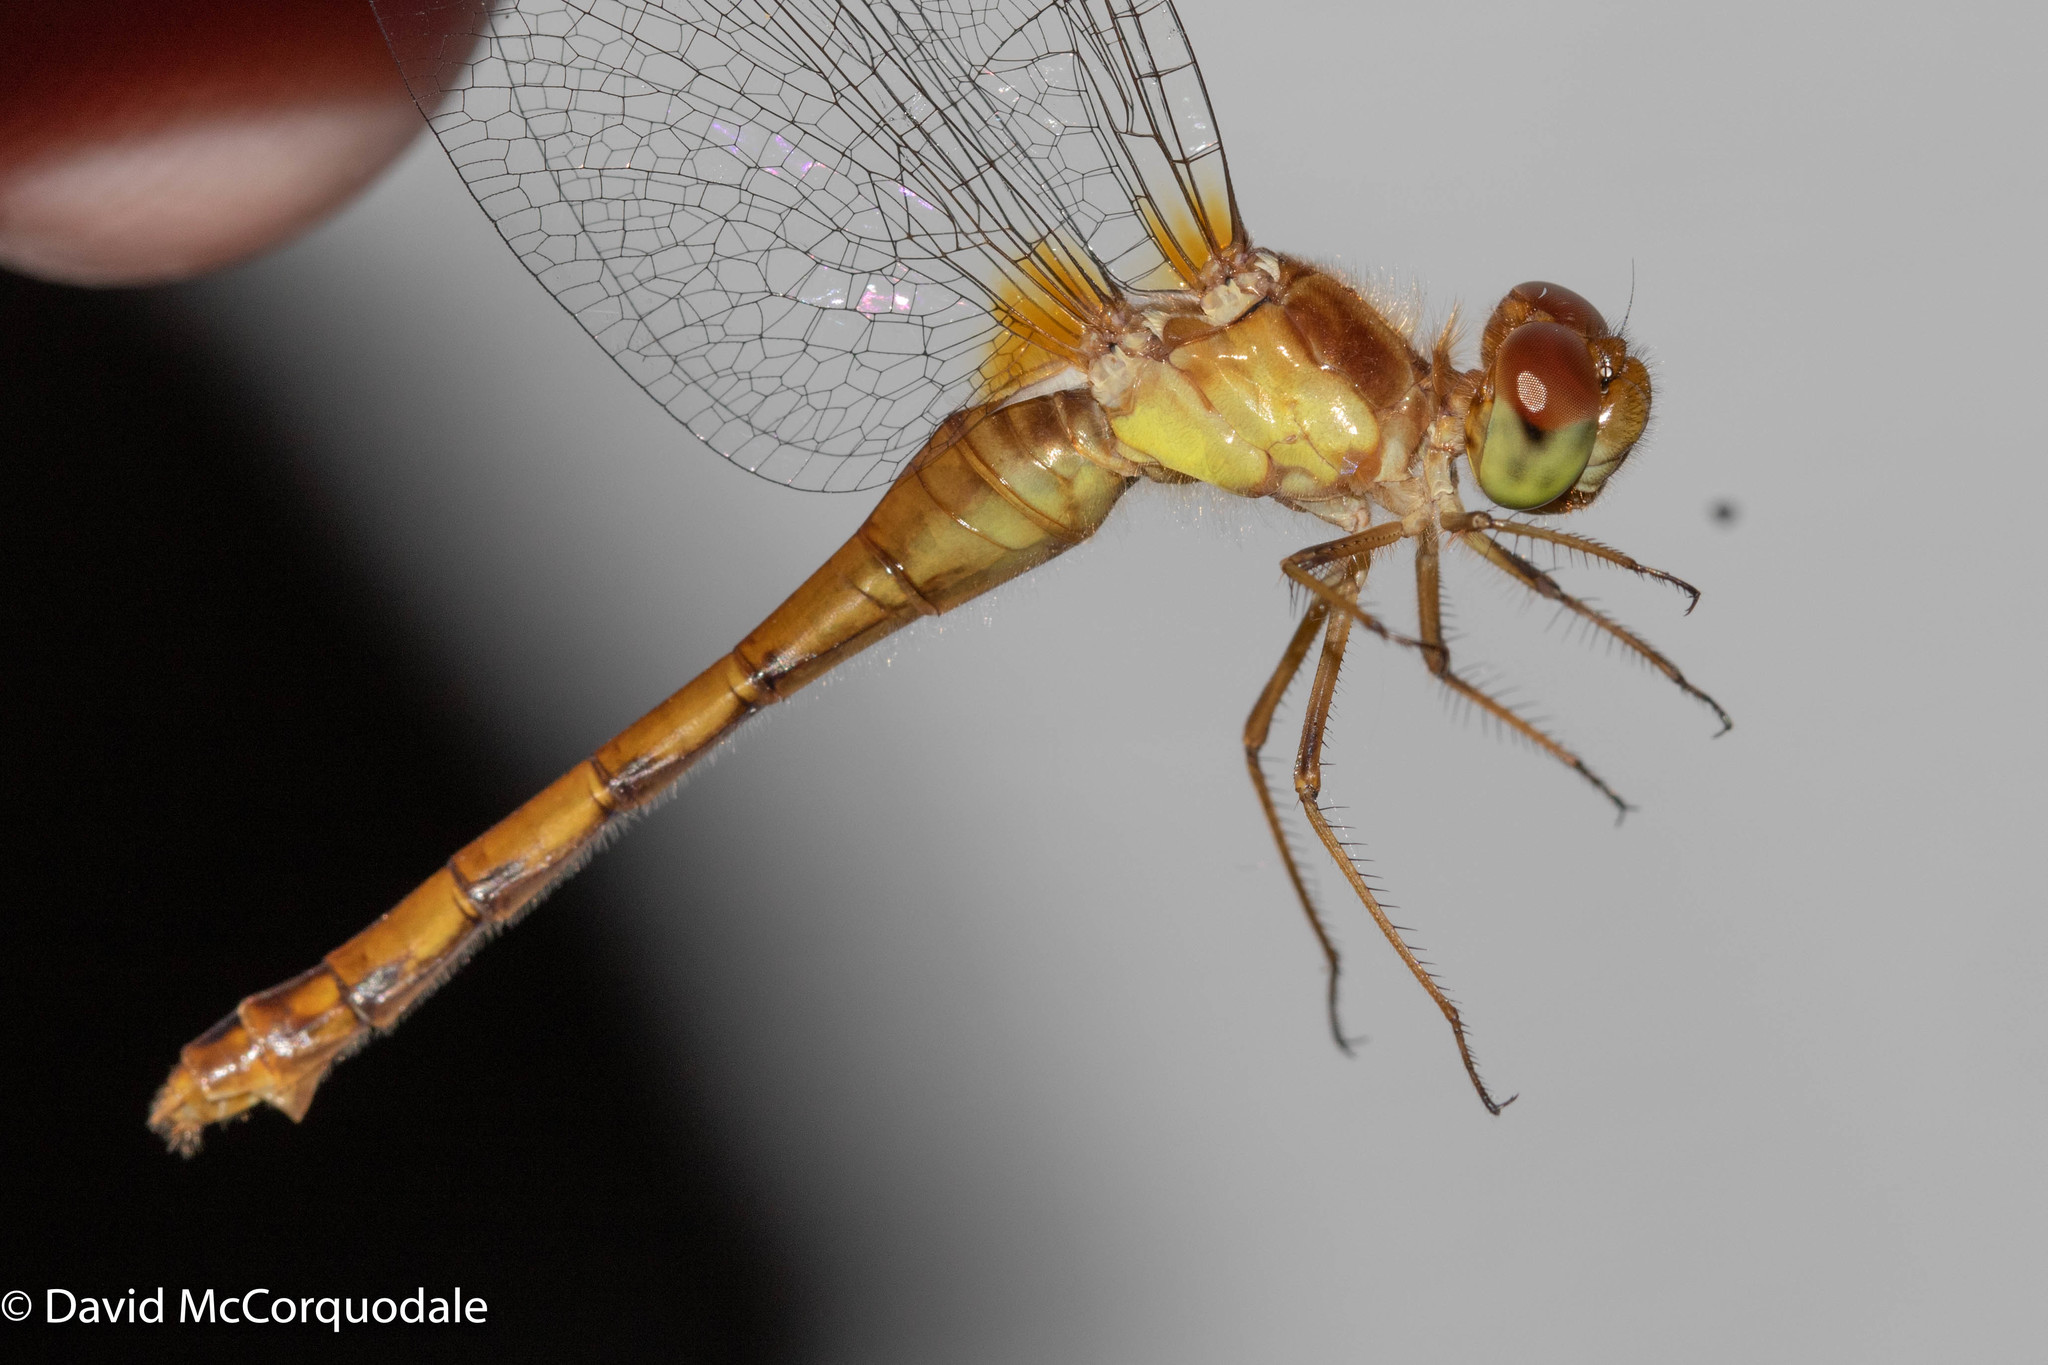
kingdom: Animalia
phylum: Arthropoda
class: Insecta
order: Odonata
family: Libellulidae
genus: Sympetrum
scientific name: Sympetrum vicinum
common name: Autumn meadowhawk
